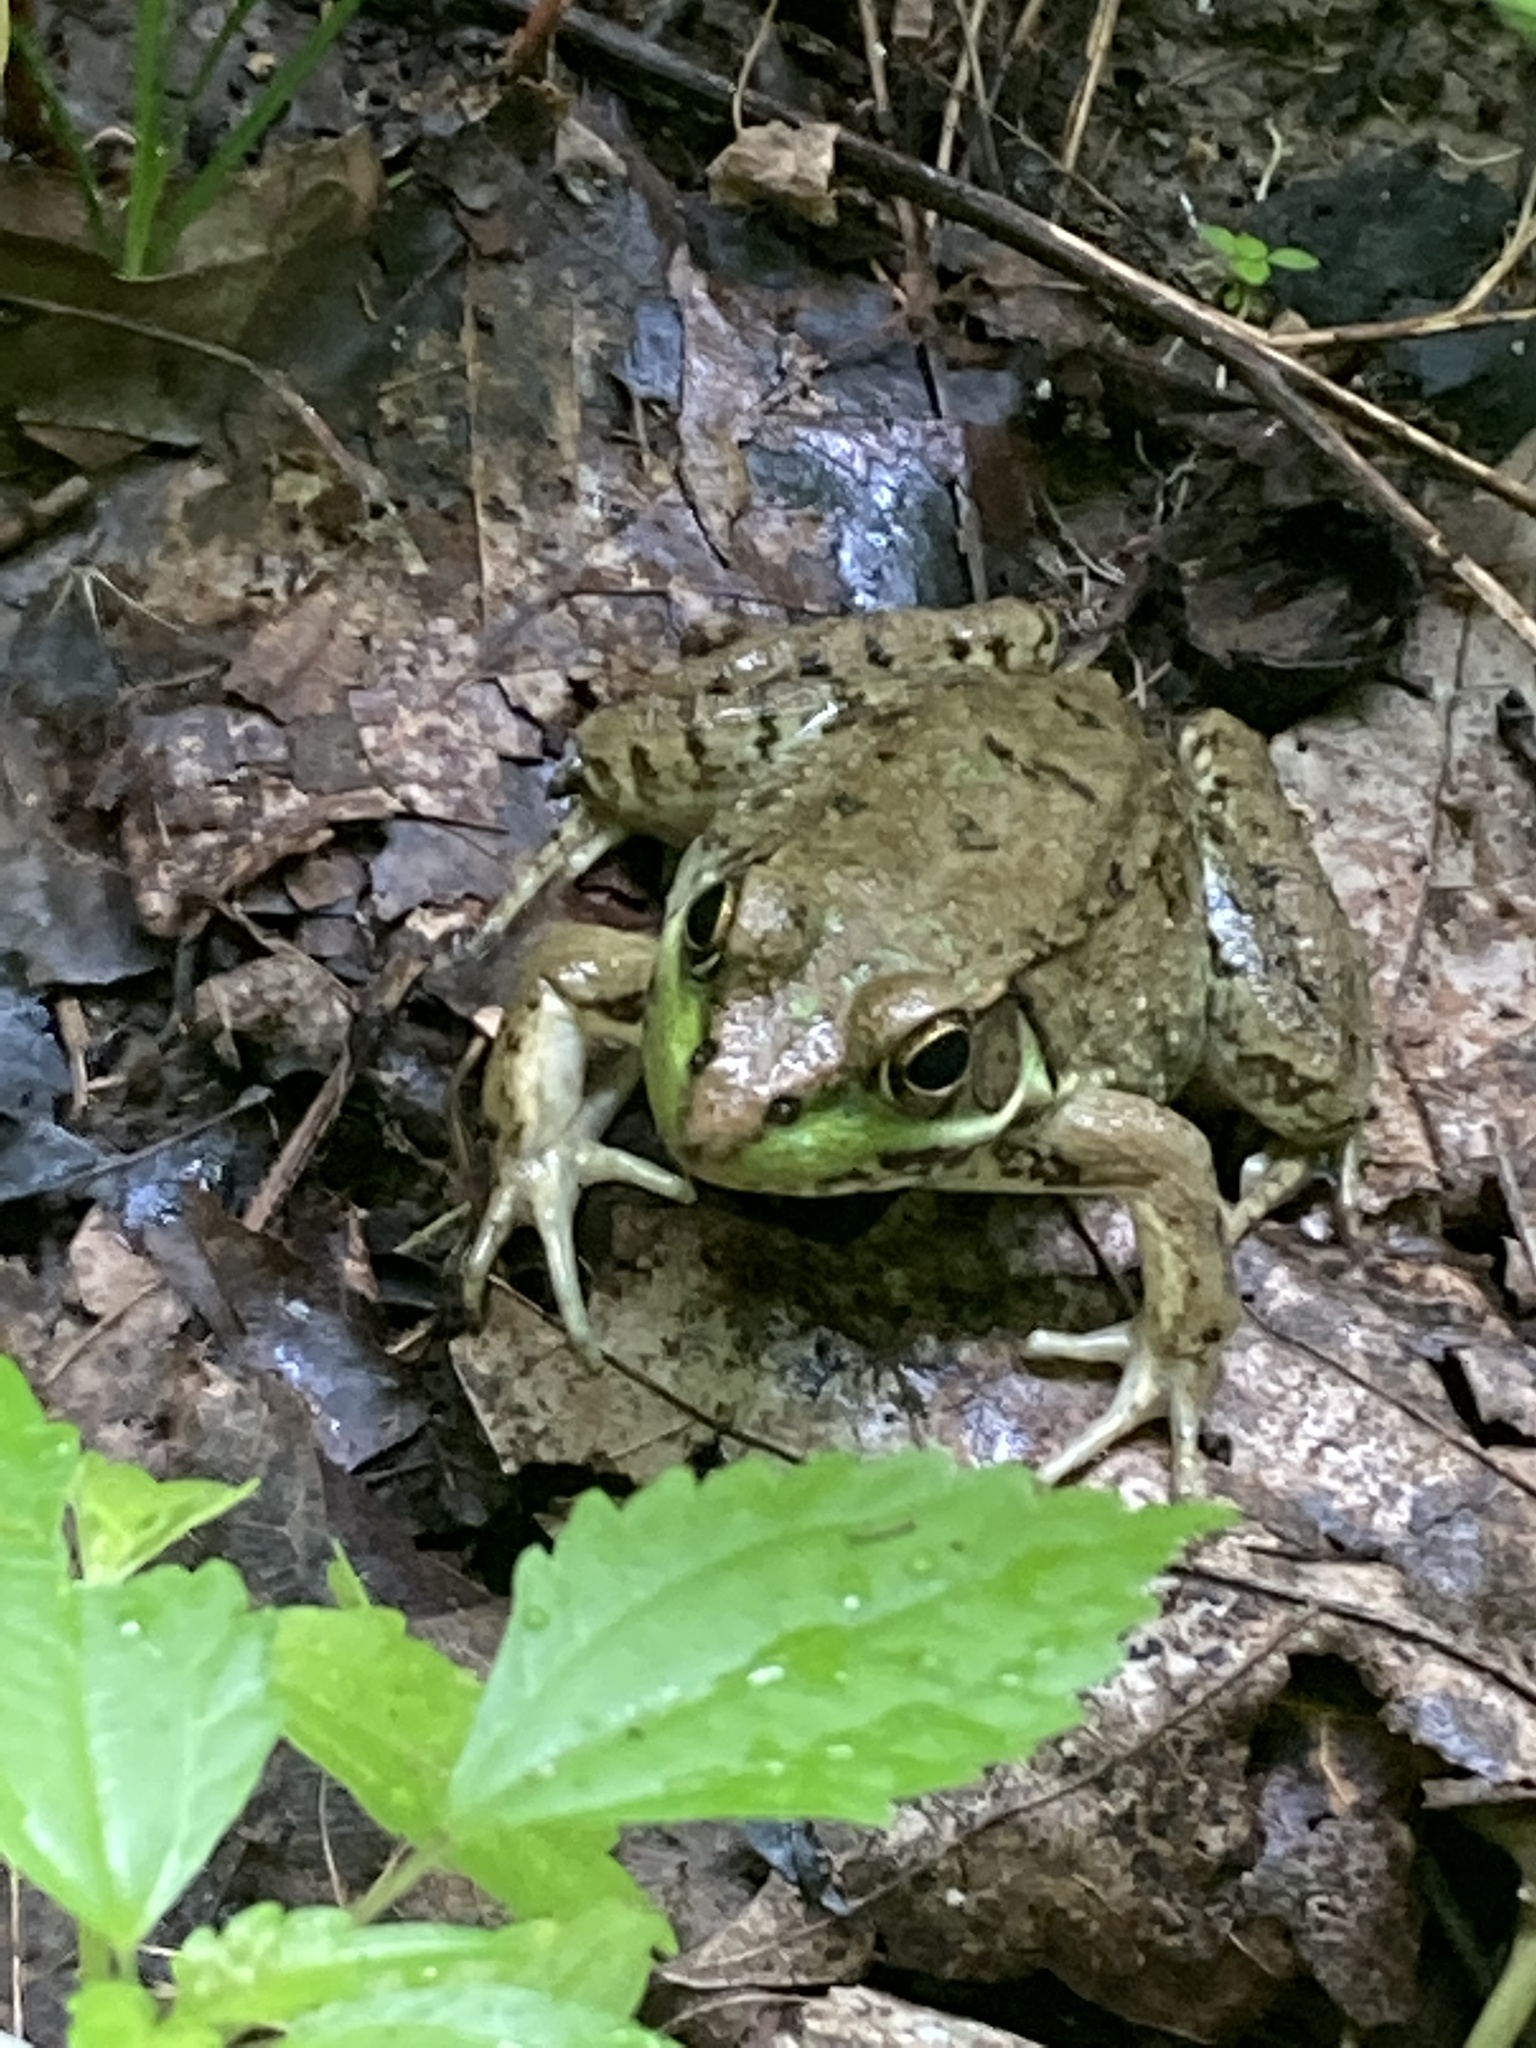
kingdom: Animalia
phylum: Chordata
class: Amphibia
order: Anura
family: Ranidae
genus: Lithobates
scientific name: Lithobates clamitans
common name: Green frog
